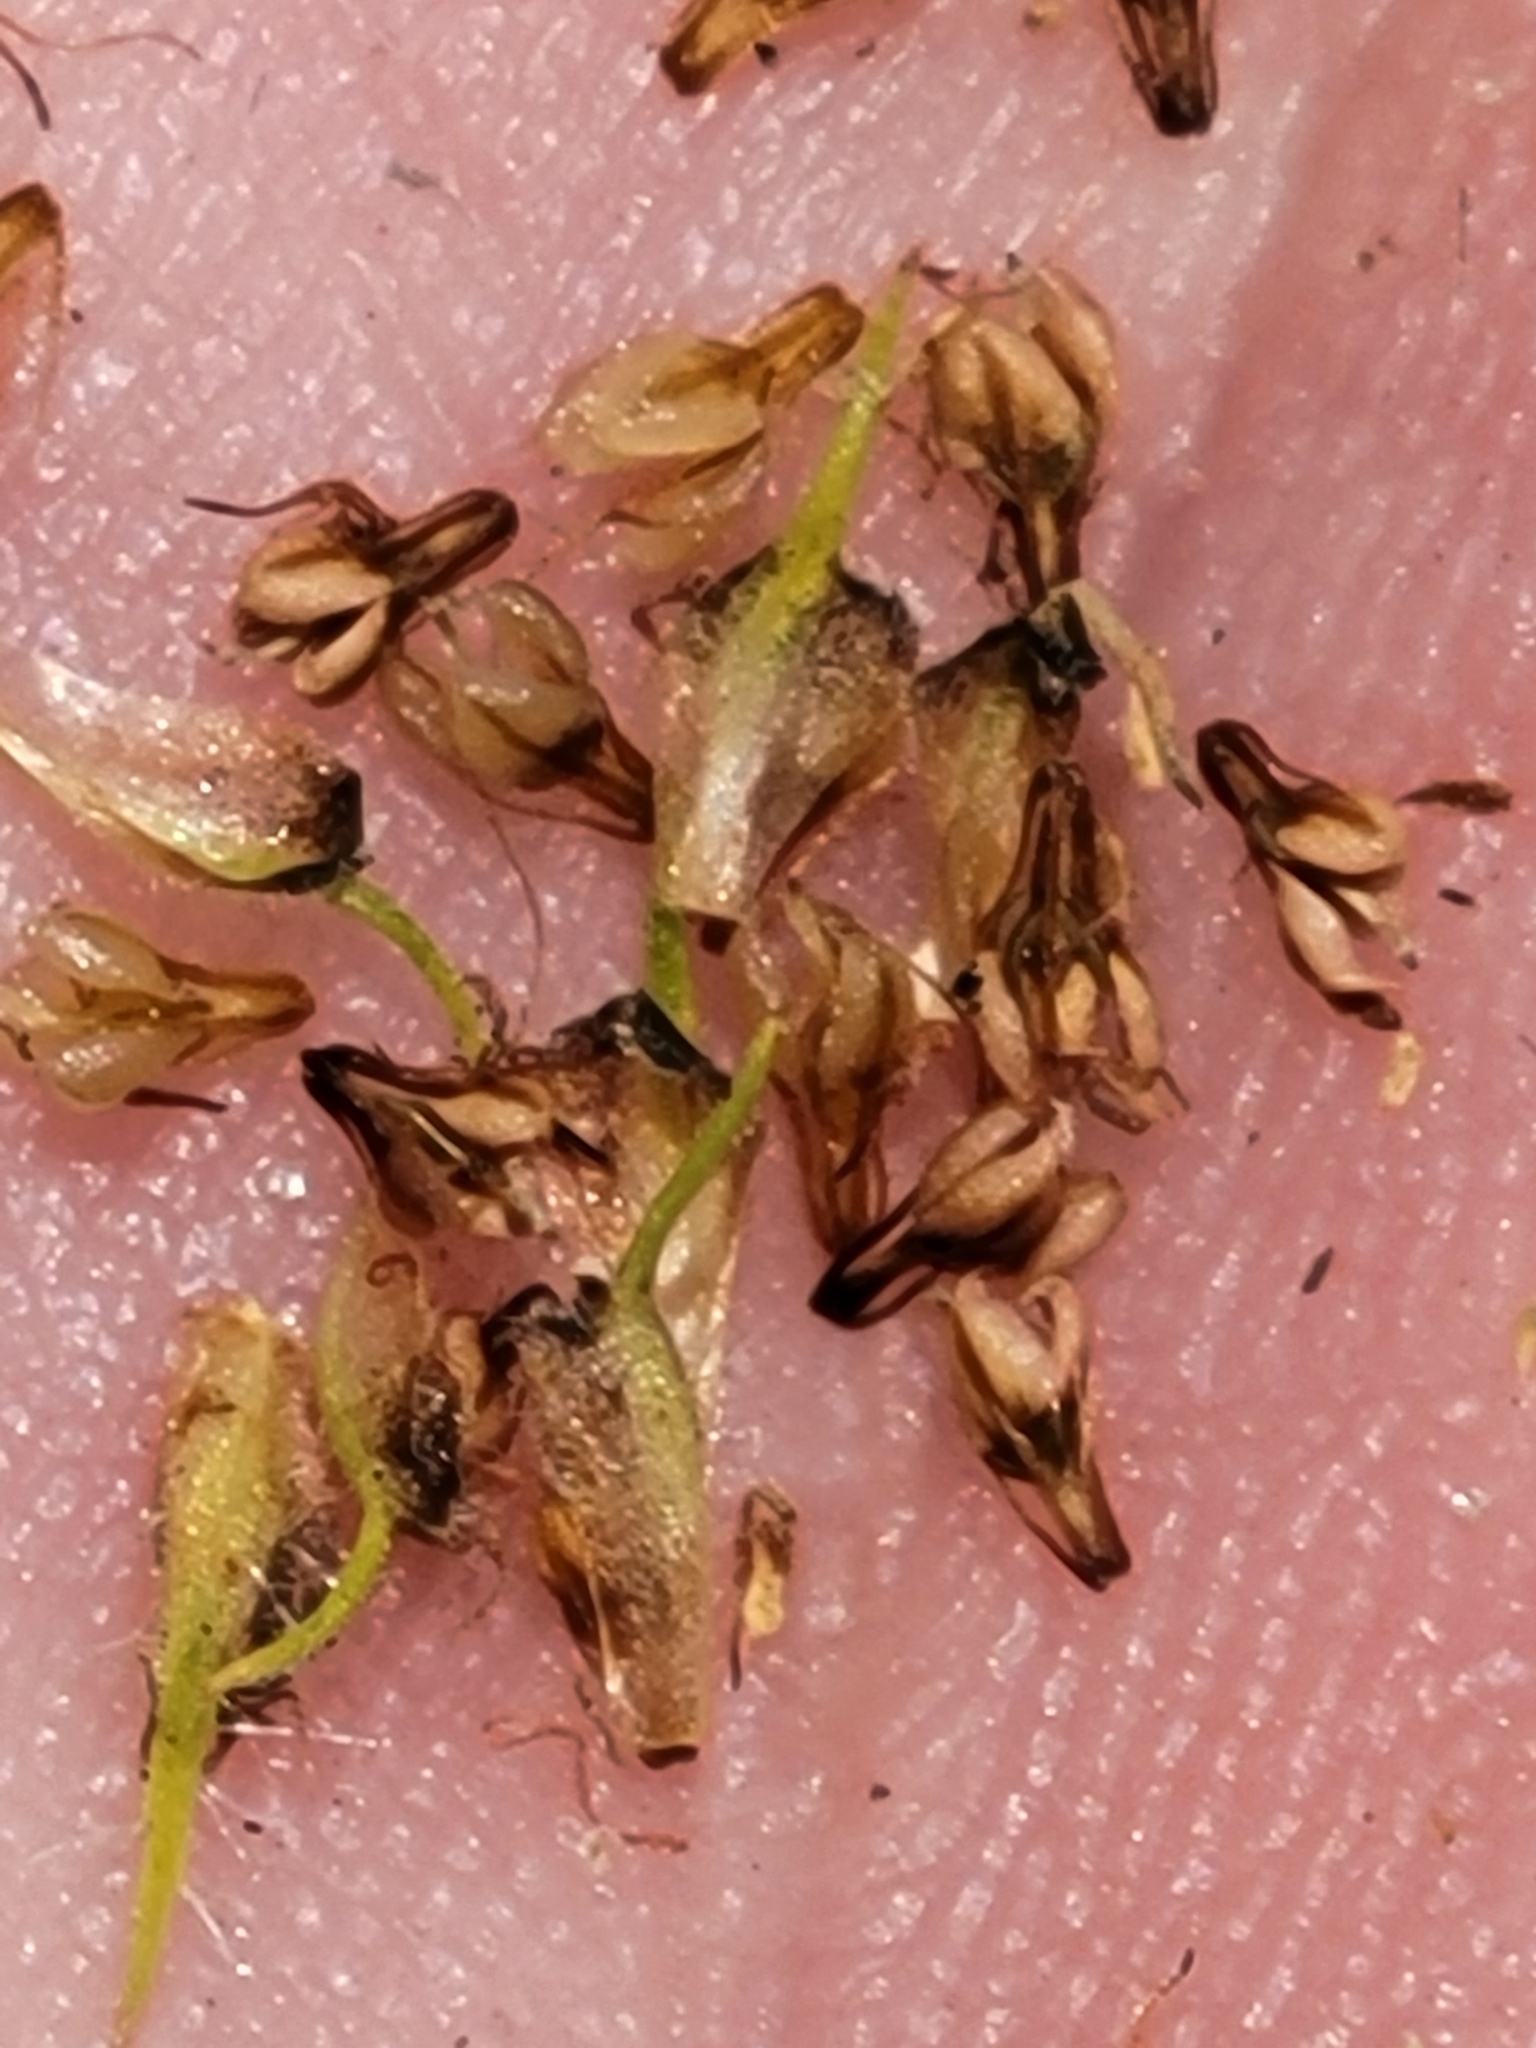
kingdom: Plantae
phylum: Tracheophyta
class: Liliopsida
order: Poales
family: Cyperaceae
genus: Fuirena
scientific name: Fuirena pumila
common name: Dwarf umbrella sedge
